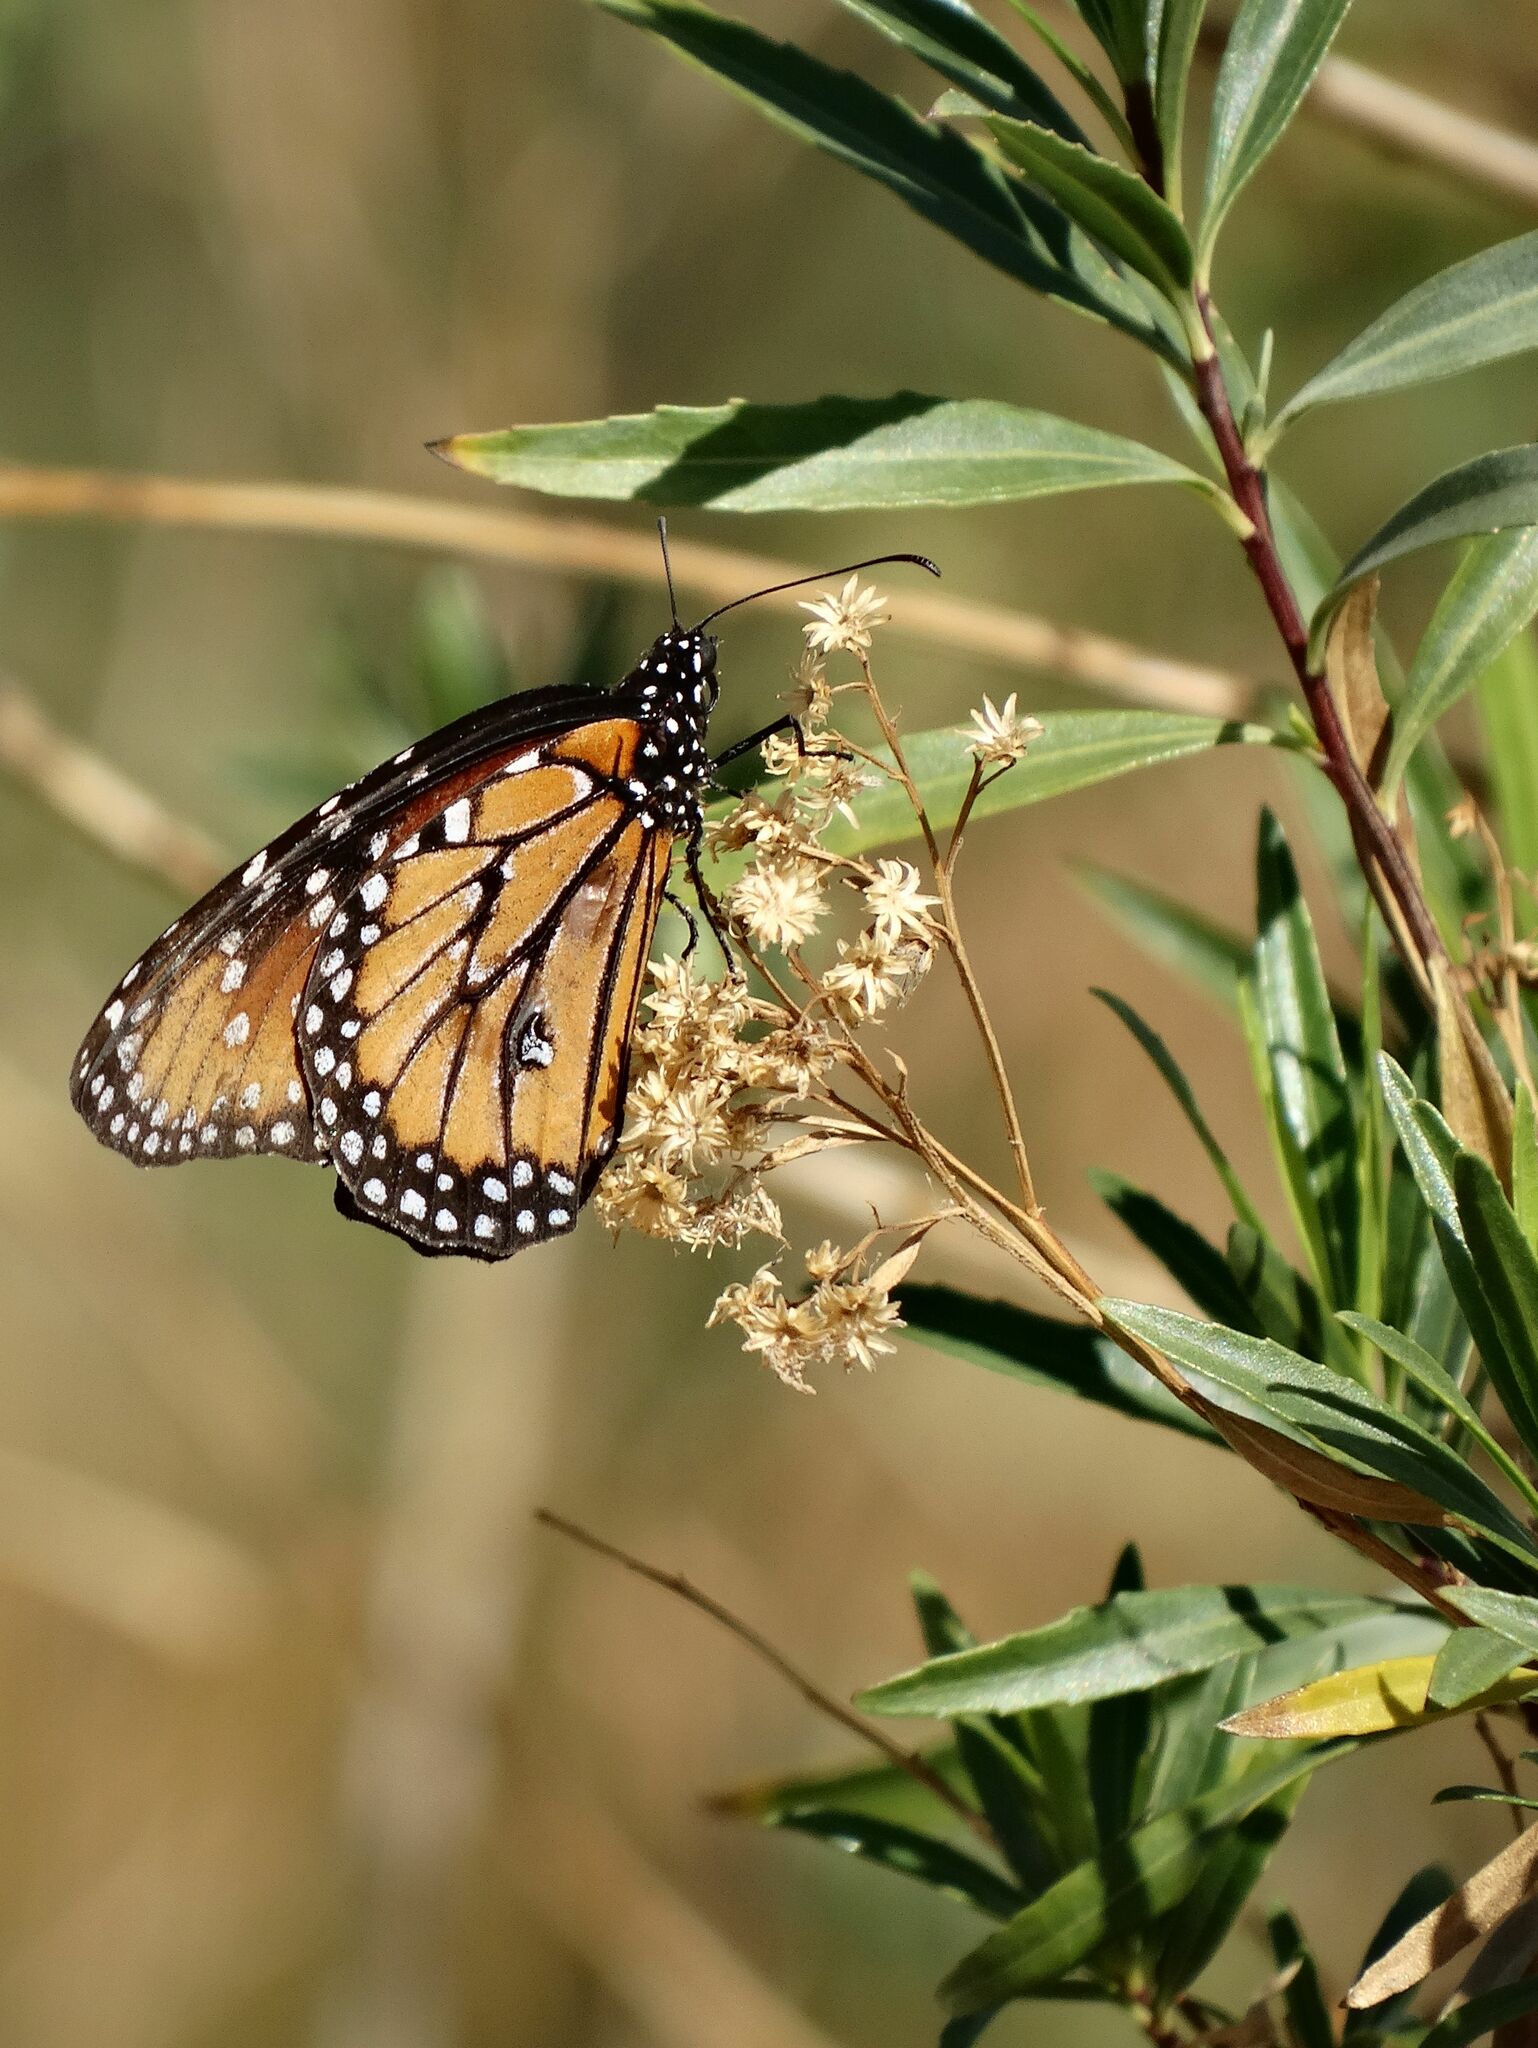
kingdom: Animalia
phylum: Arthropoda
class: Insecta
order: Lepidoptera
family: Nymphalidae
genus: Danaus
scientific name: Danaus gilippus
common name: Queen
